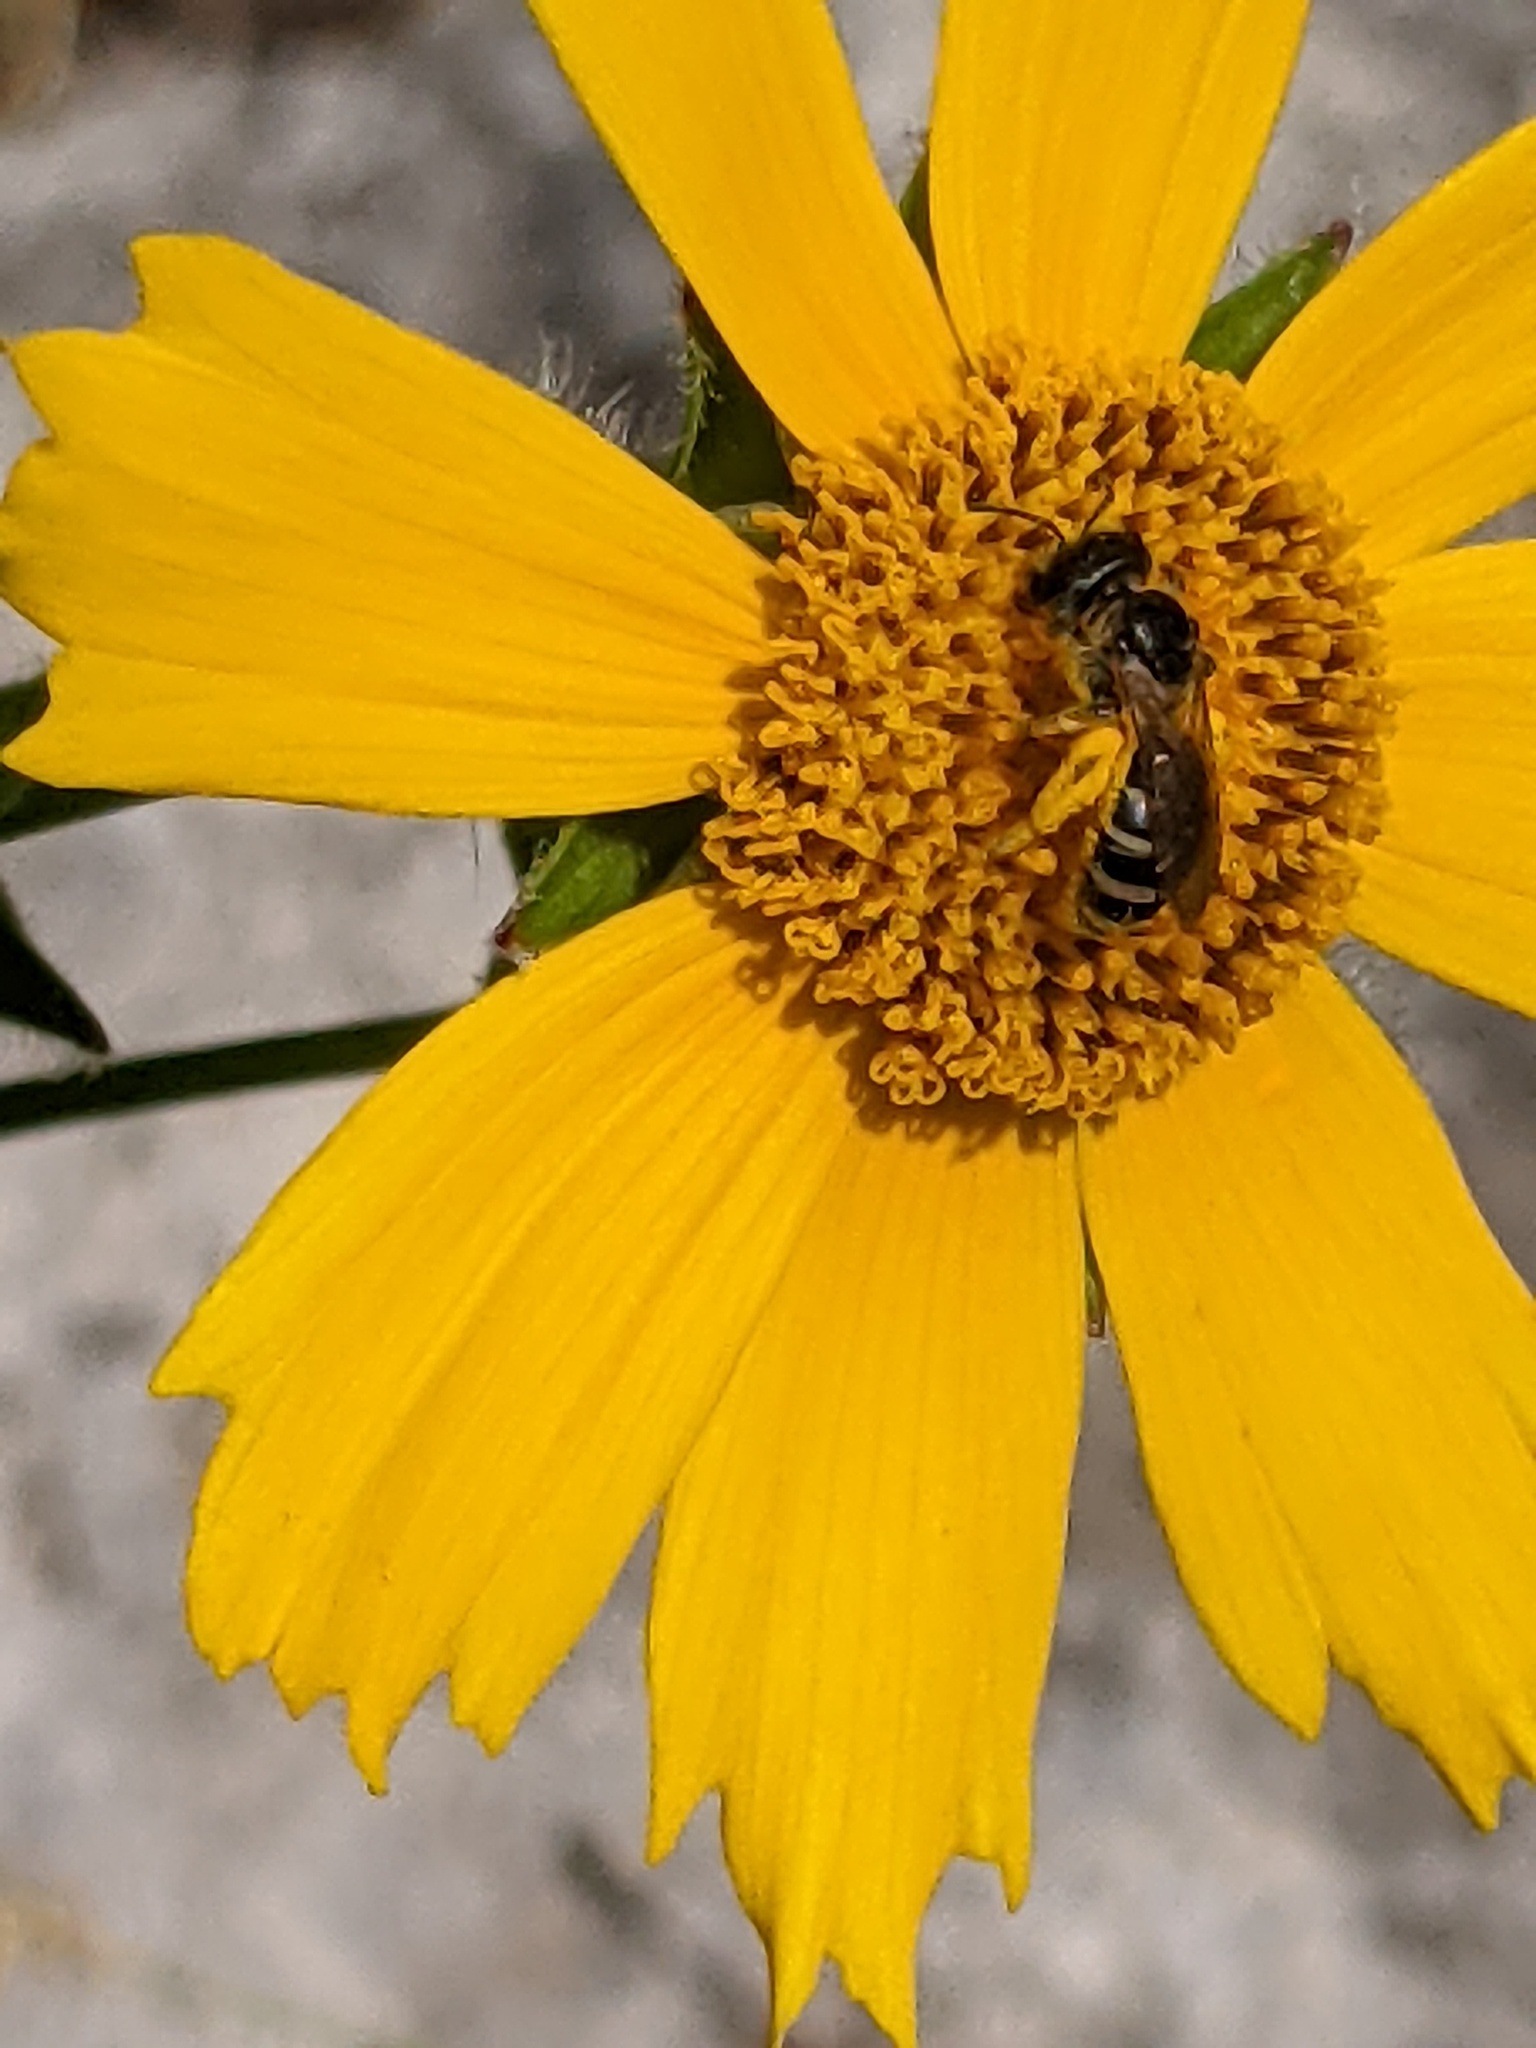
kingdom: Animalia
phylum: Arthropoda
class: Insecta
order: Hymenoptera
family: Halictidae
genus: Halictus
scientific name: Halictus ligatus
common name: Ligated furrow bee
